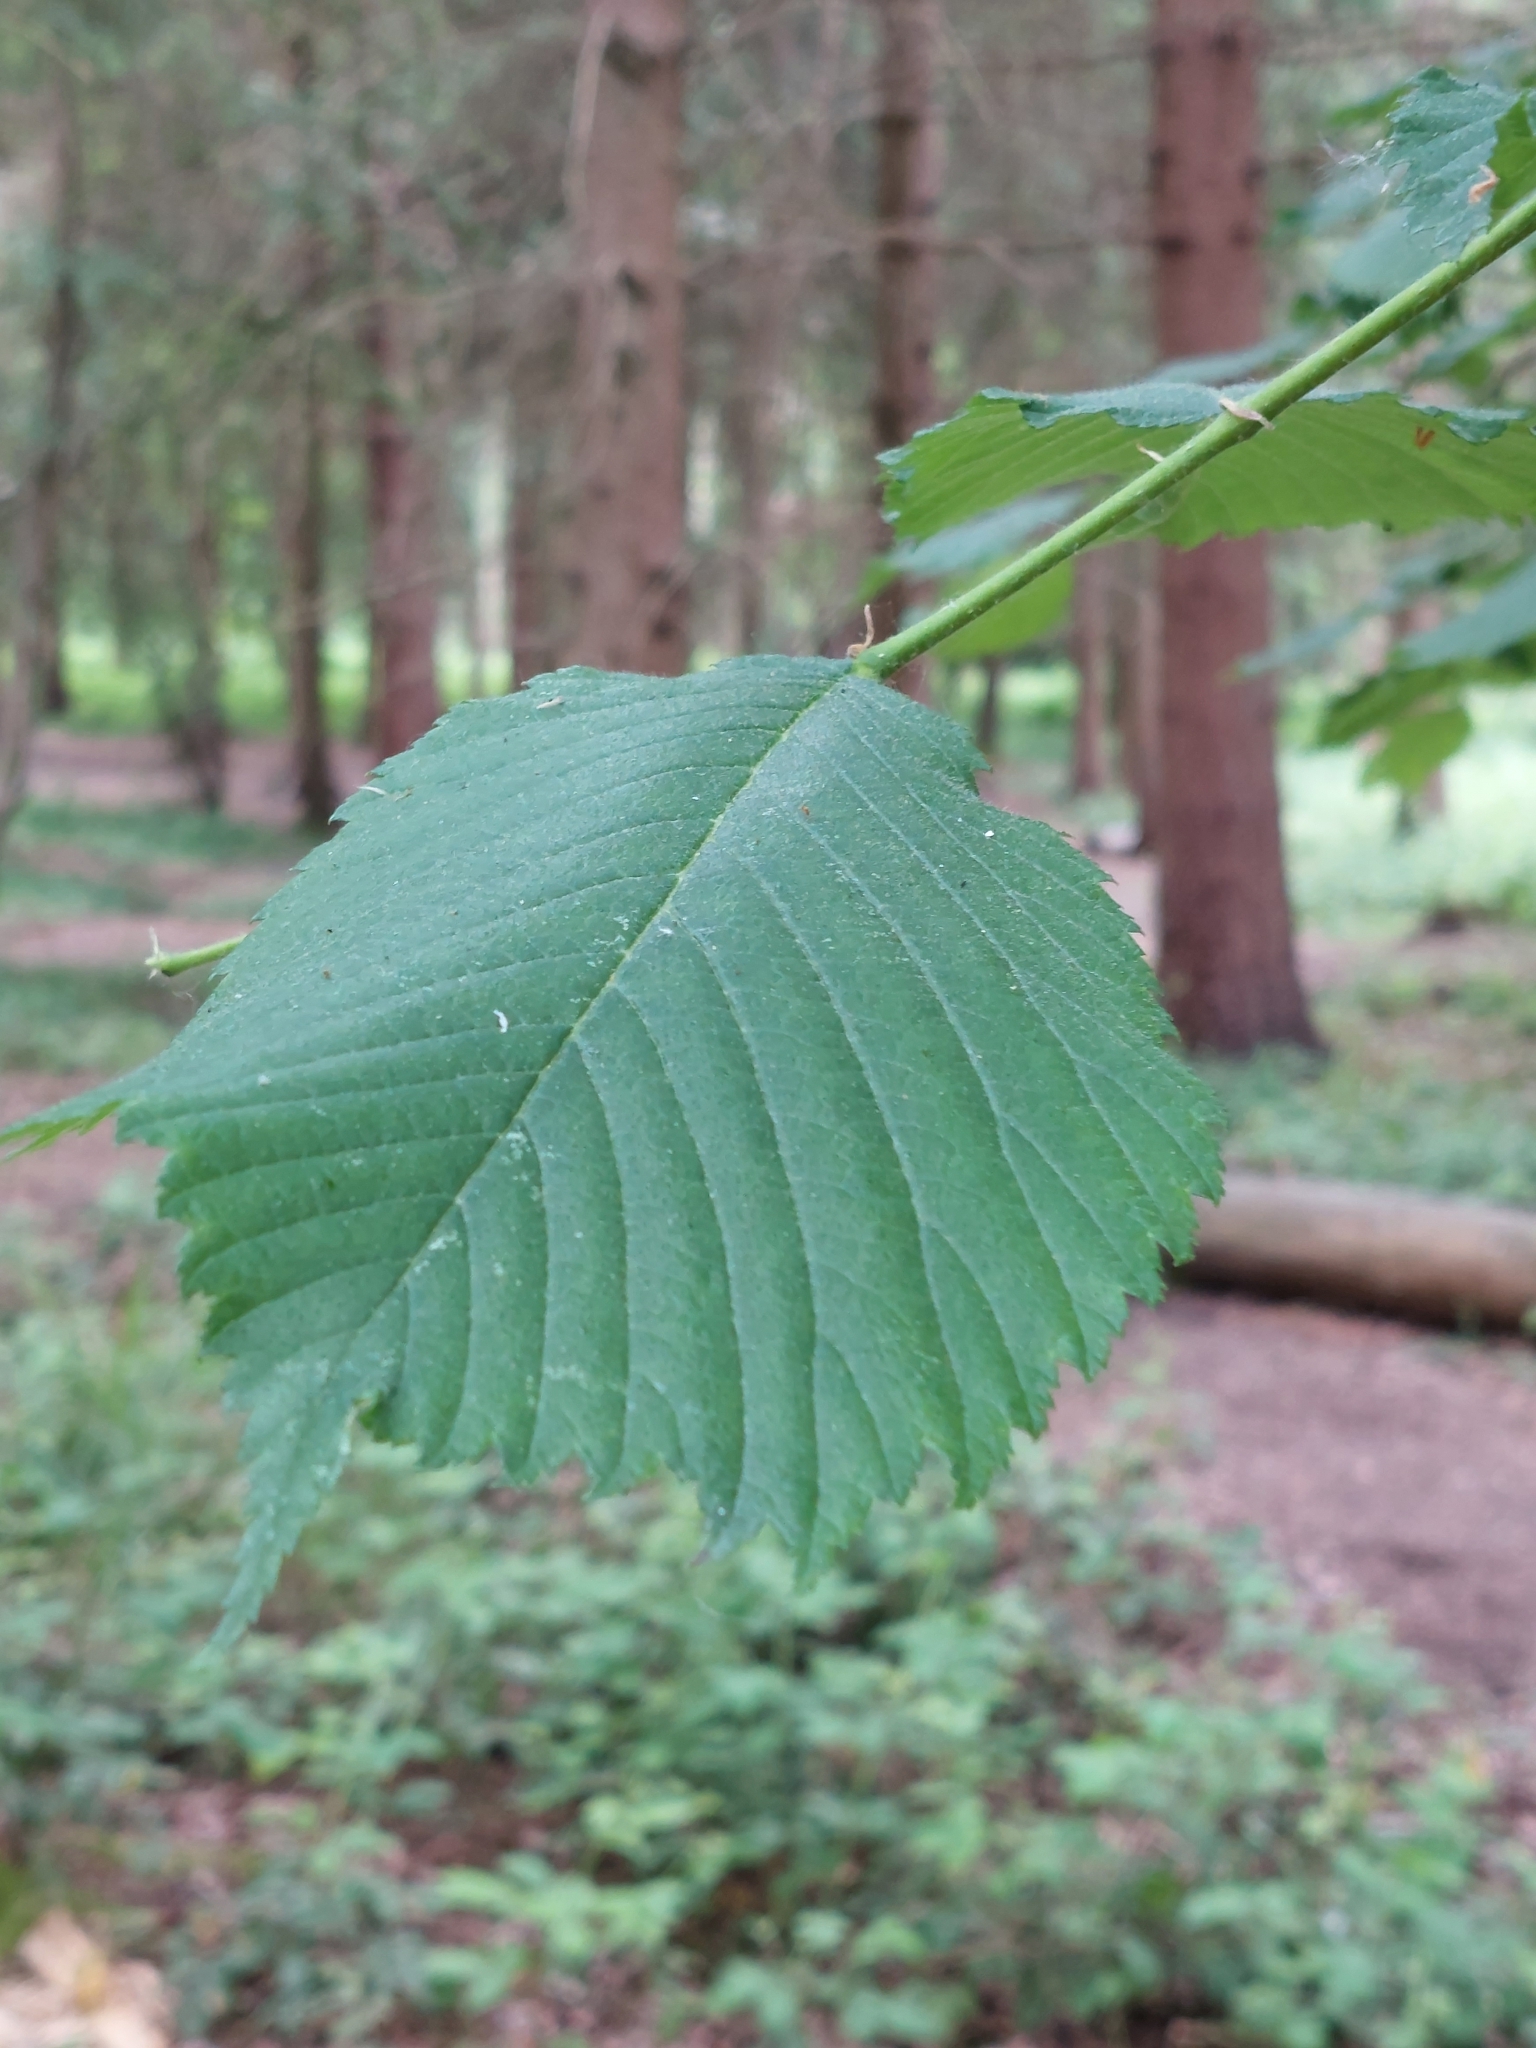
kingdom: Plantae
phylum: Tracheophyta
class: Magnoliopsida
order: Rosales
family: Ulmaceae
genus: Ulmus
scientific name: Ulmus glabra
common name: Wych elm
